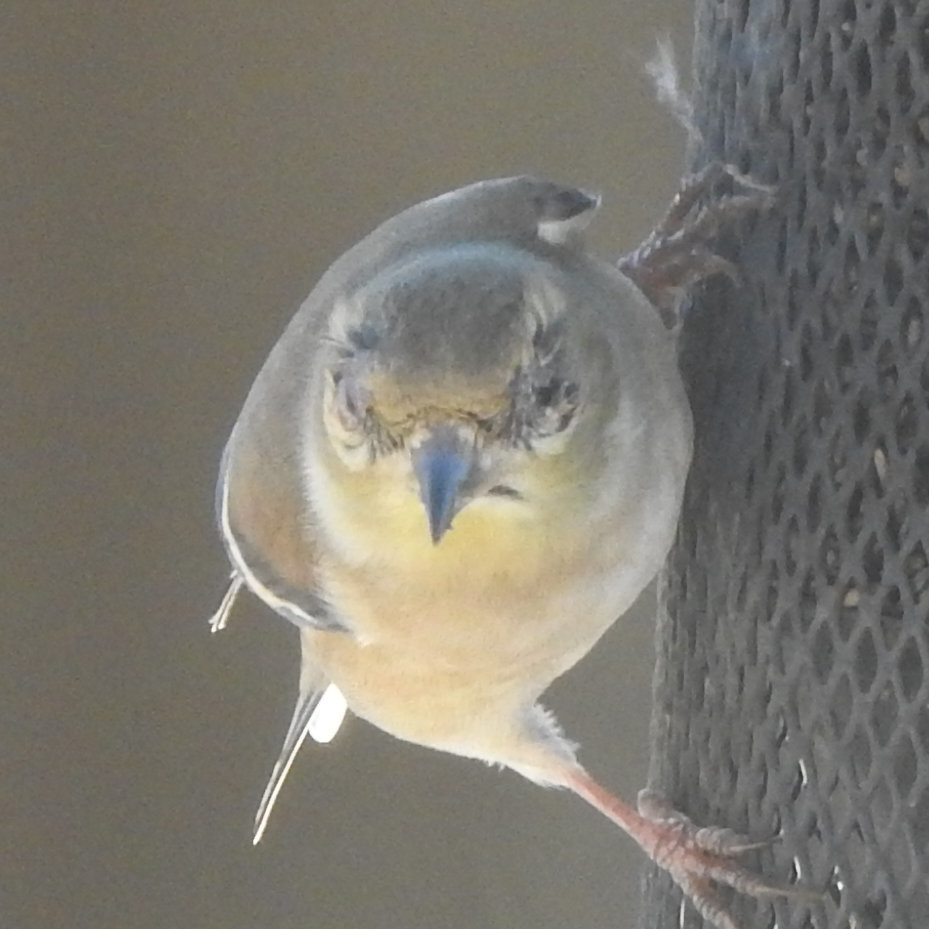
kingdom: Bacteria
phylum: Firmicutes
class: Bacilli
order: Mycoplasmatales
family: Mycoplasmataceae
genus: Mycoplasma
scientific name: Mycoplasma gallisepticum
